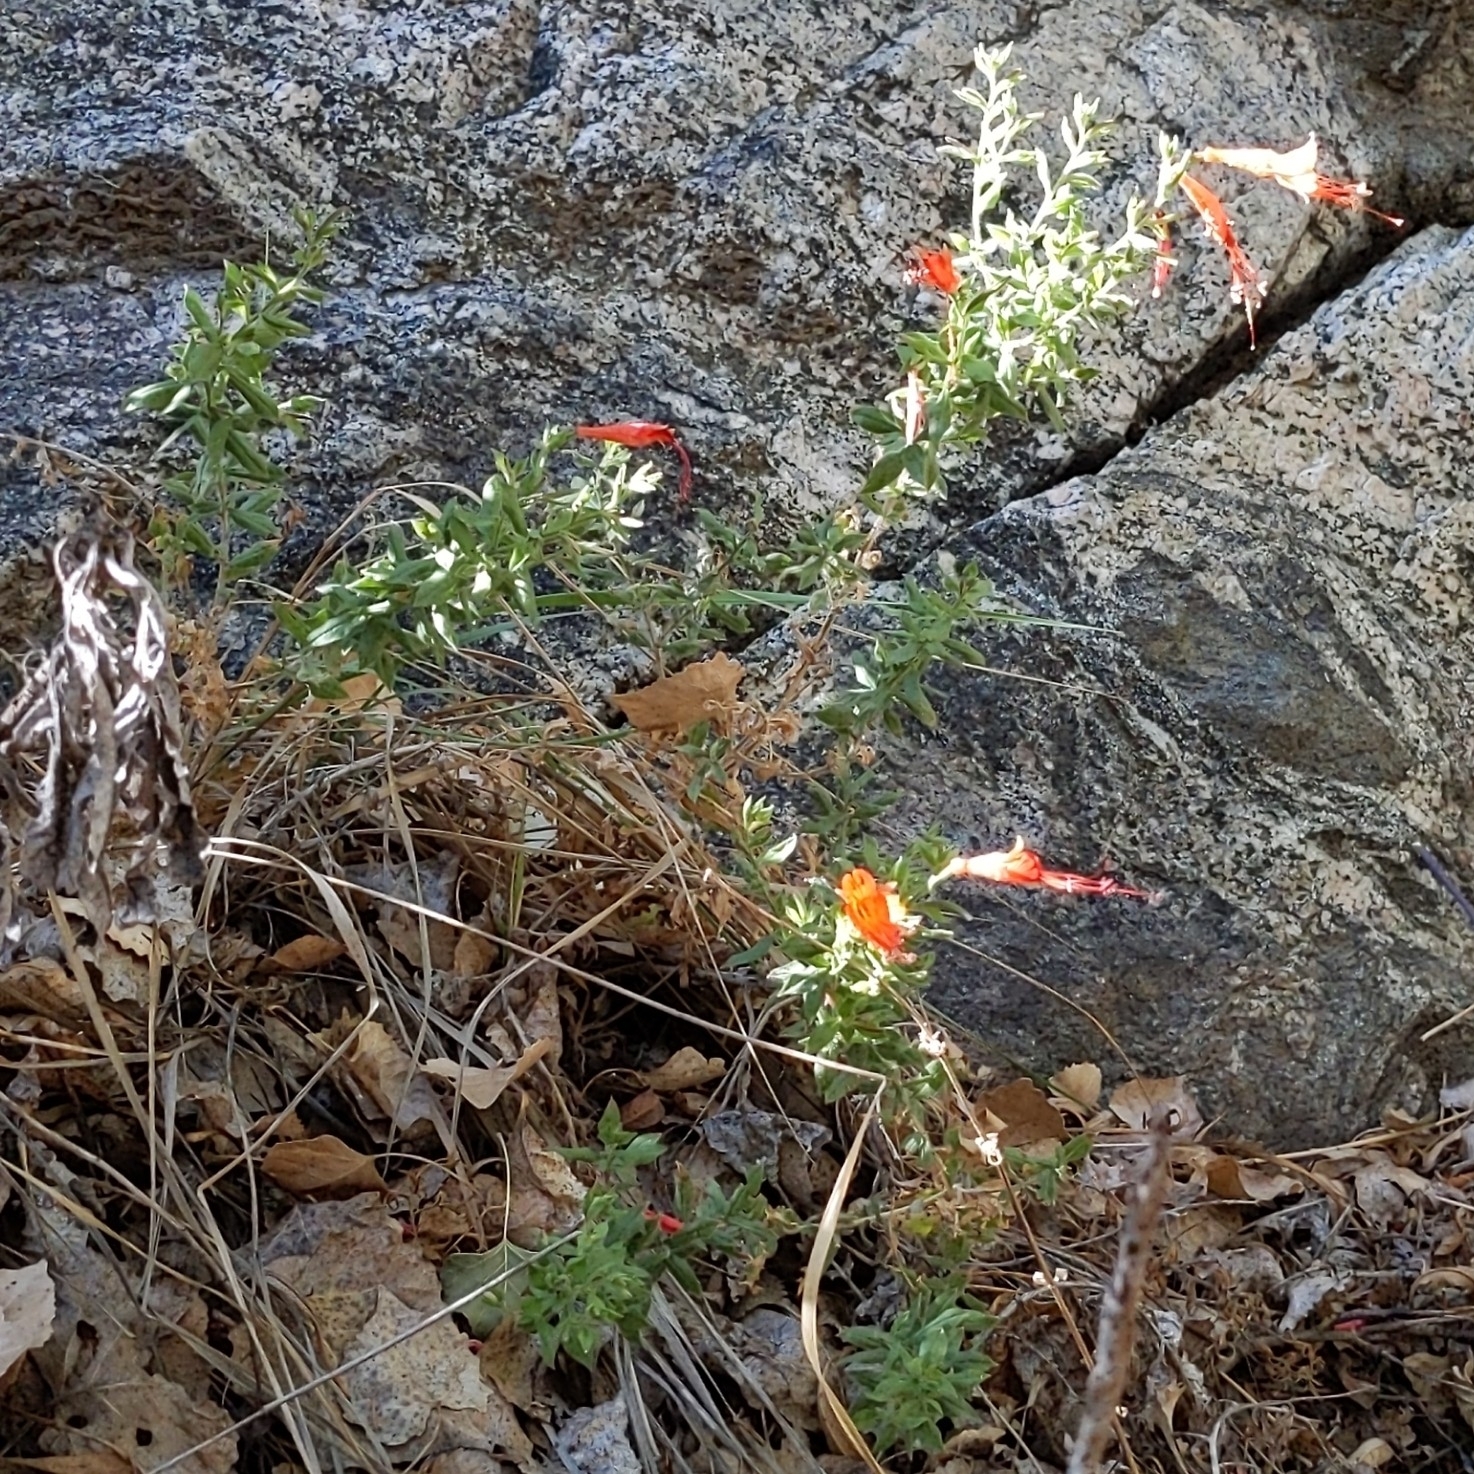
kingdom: Plantae
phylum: Tracheophyta
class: Magnoliopsida
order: Myrtales
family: Onagraceae
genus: Epilobium
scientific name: Epilobium canum
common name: California-fuchsia
